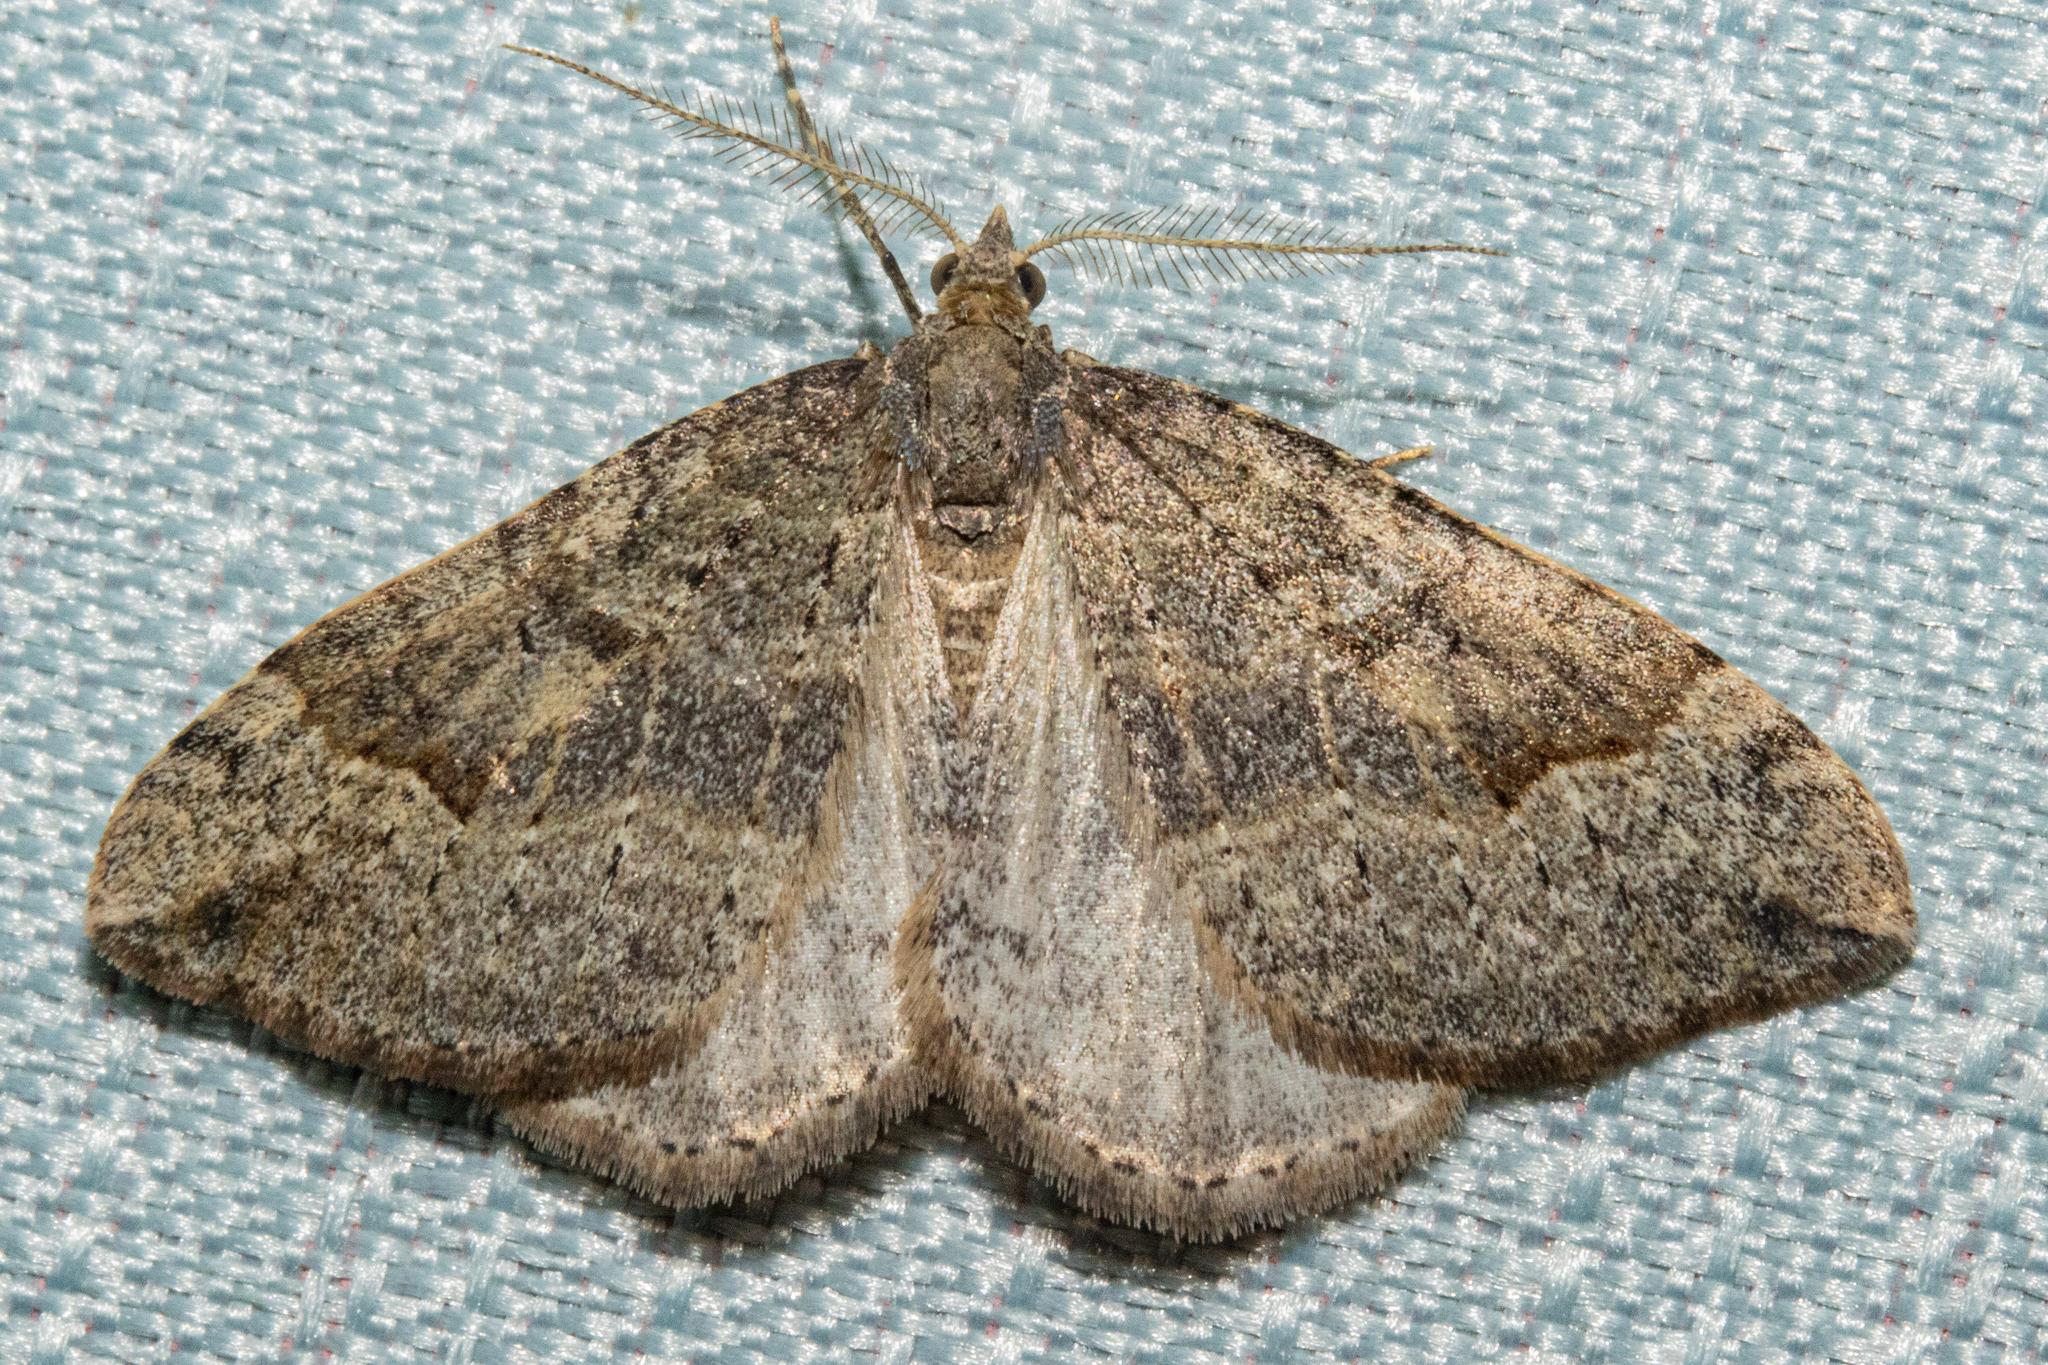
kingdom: Animalia
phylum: Arthropoda
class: Insecta
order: Lepidoptera
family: Geometridae
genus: Epyaxa
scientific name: Epyaxa rosearia
